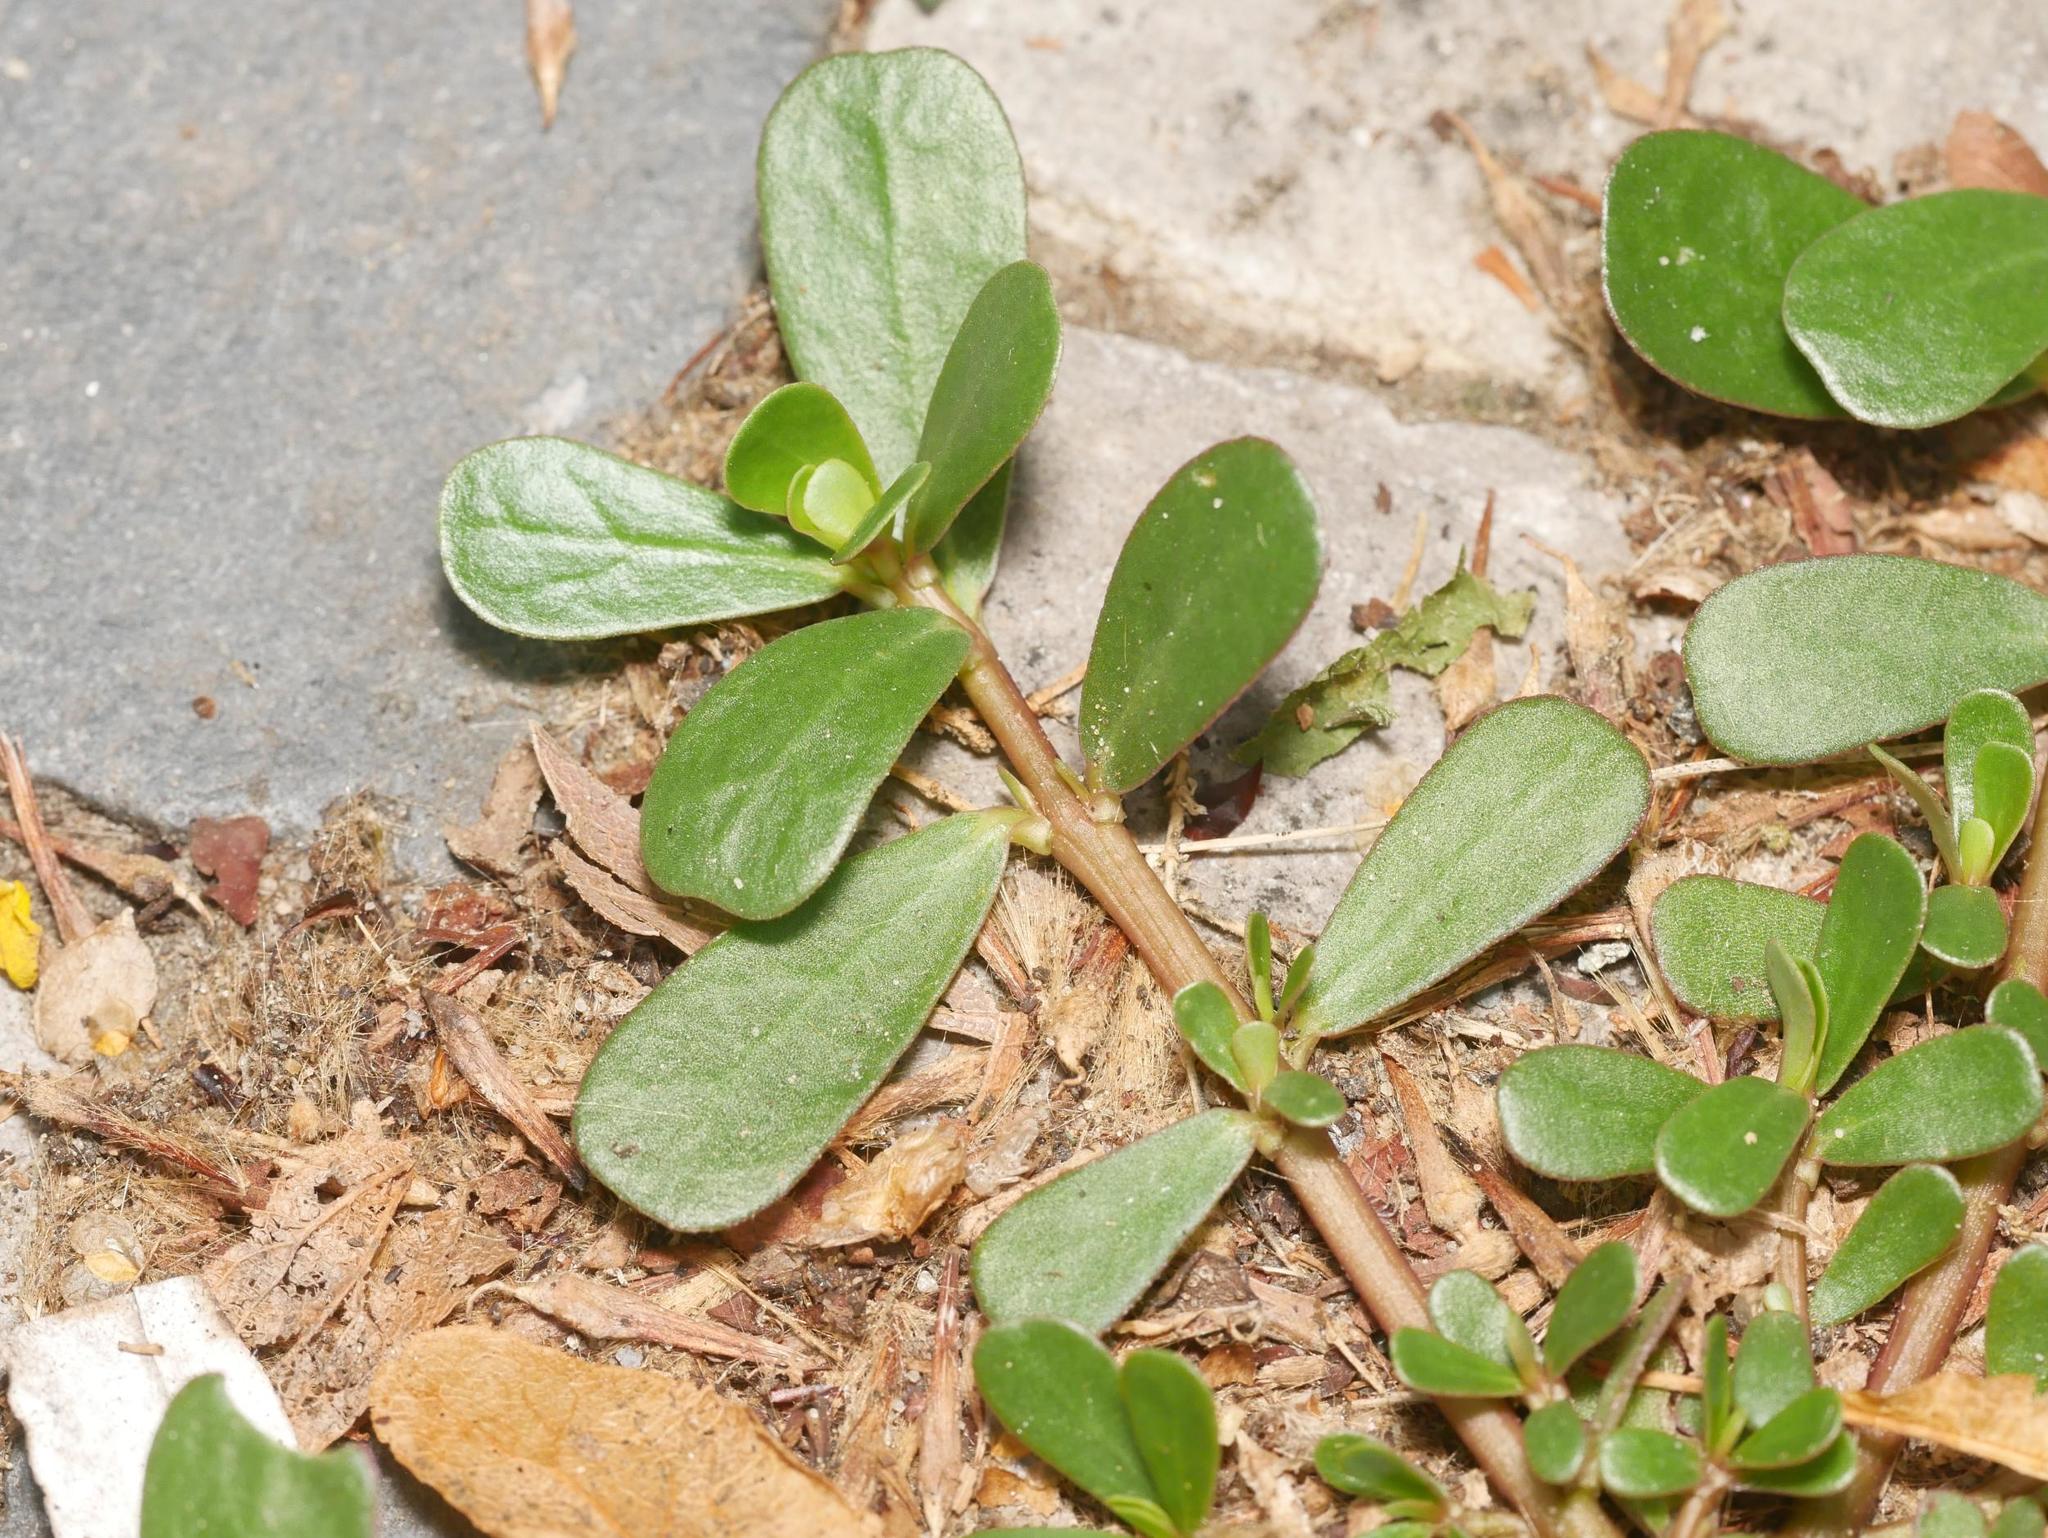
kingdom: Plantae
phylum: Tracheophyta
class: Magnoliopsida
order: Caryophyllales
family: Portulacaceae
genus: Portulaca
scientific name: Portulaca oleracea
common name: Common purslane
